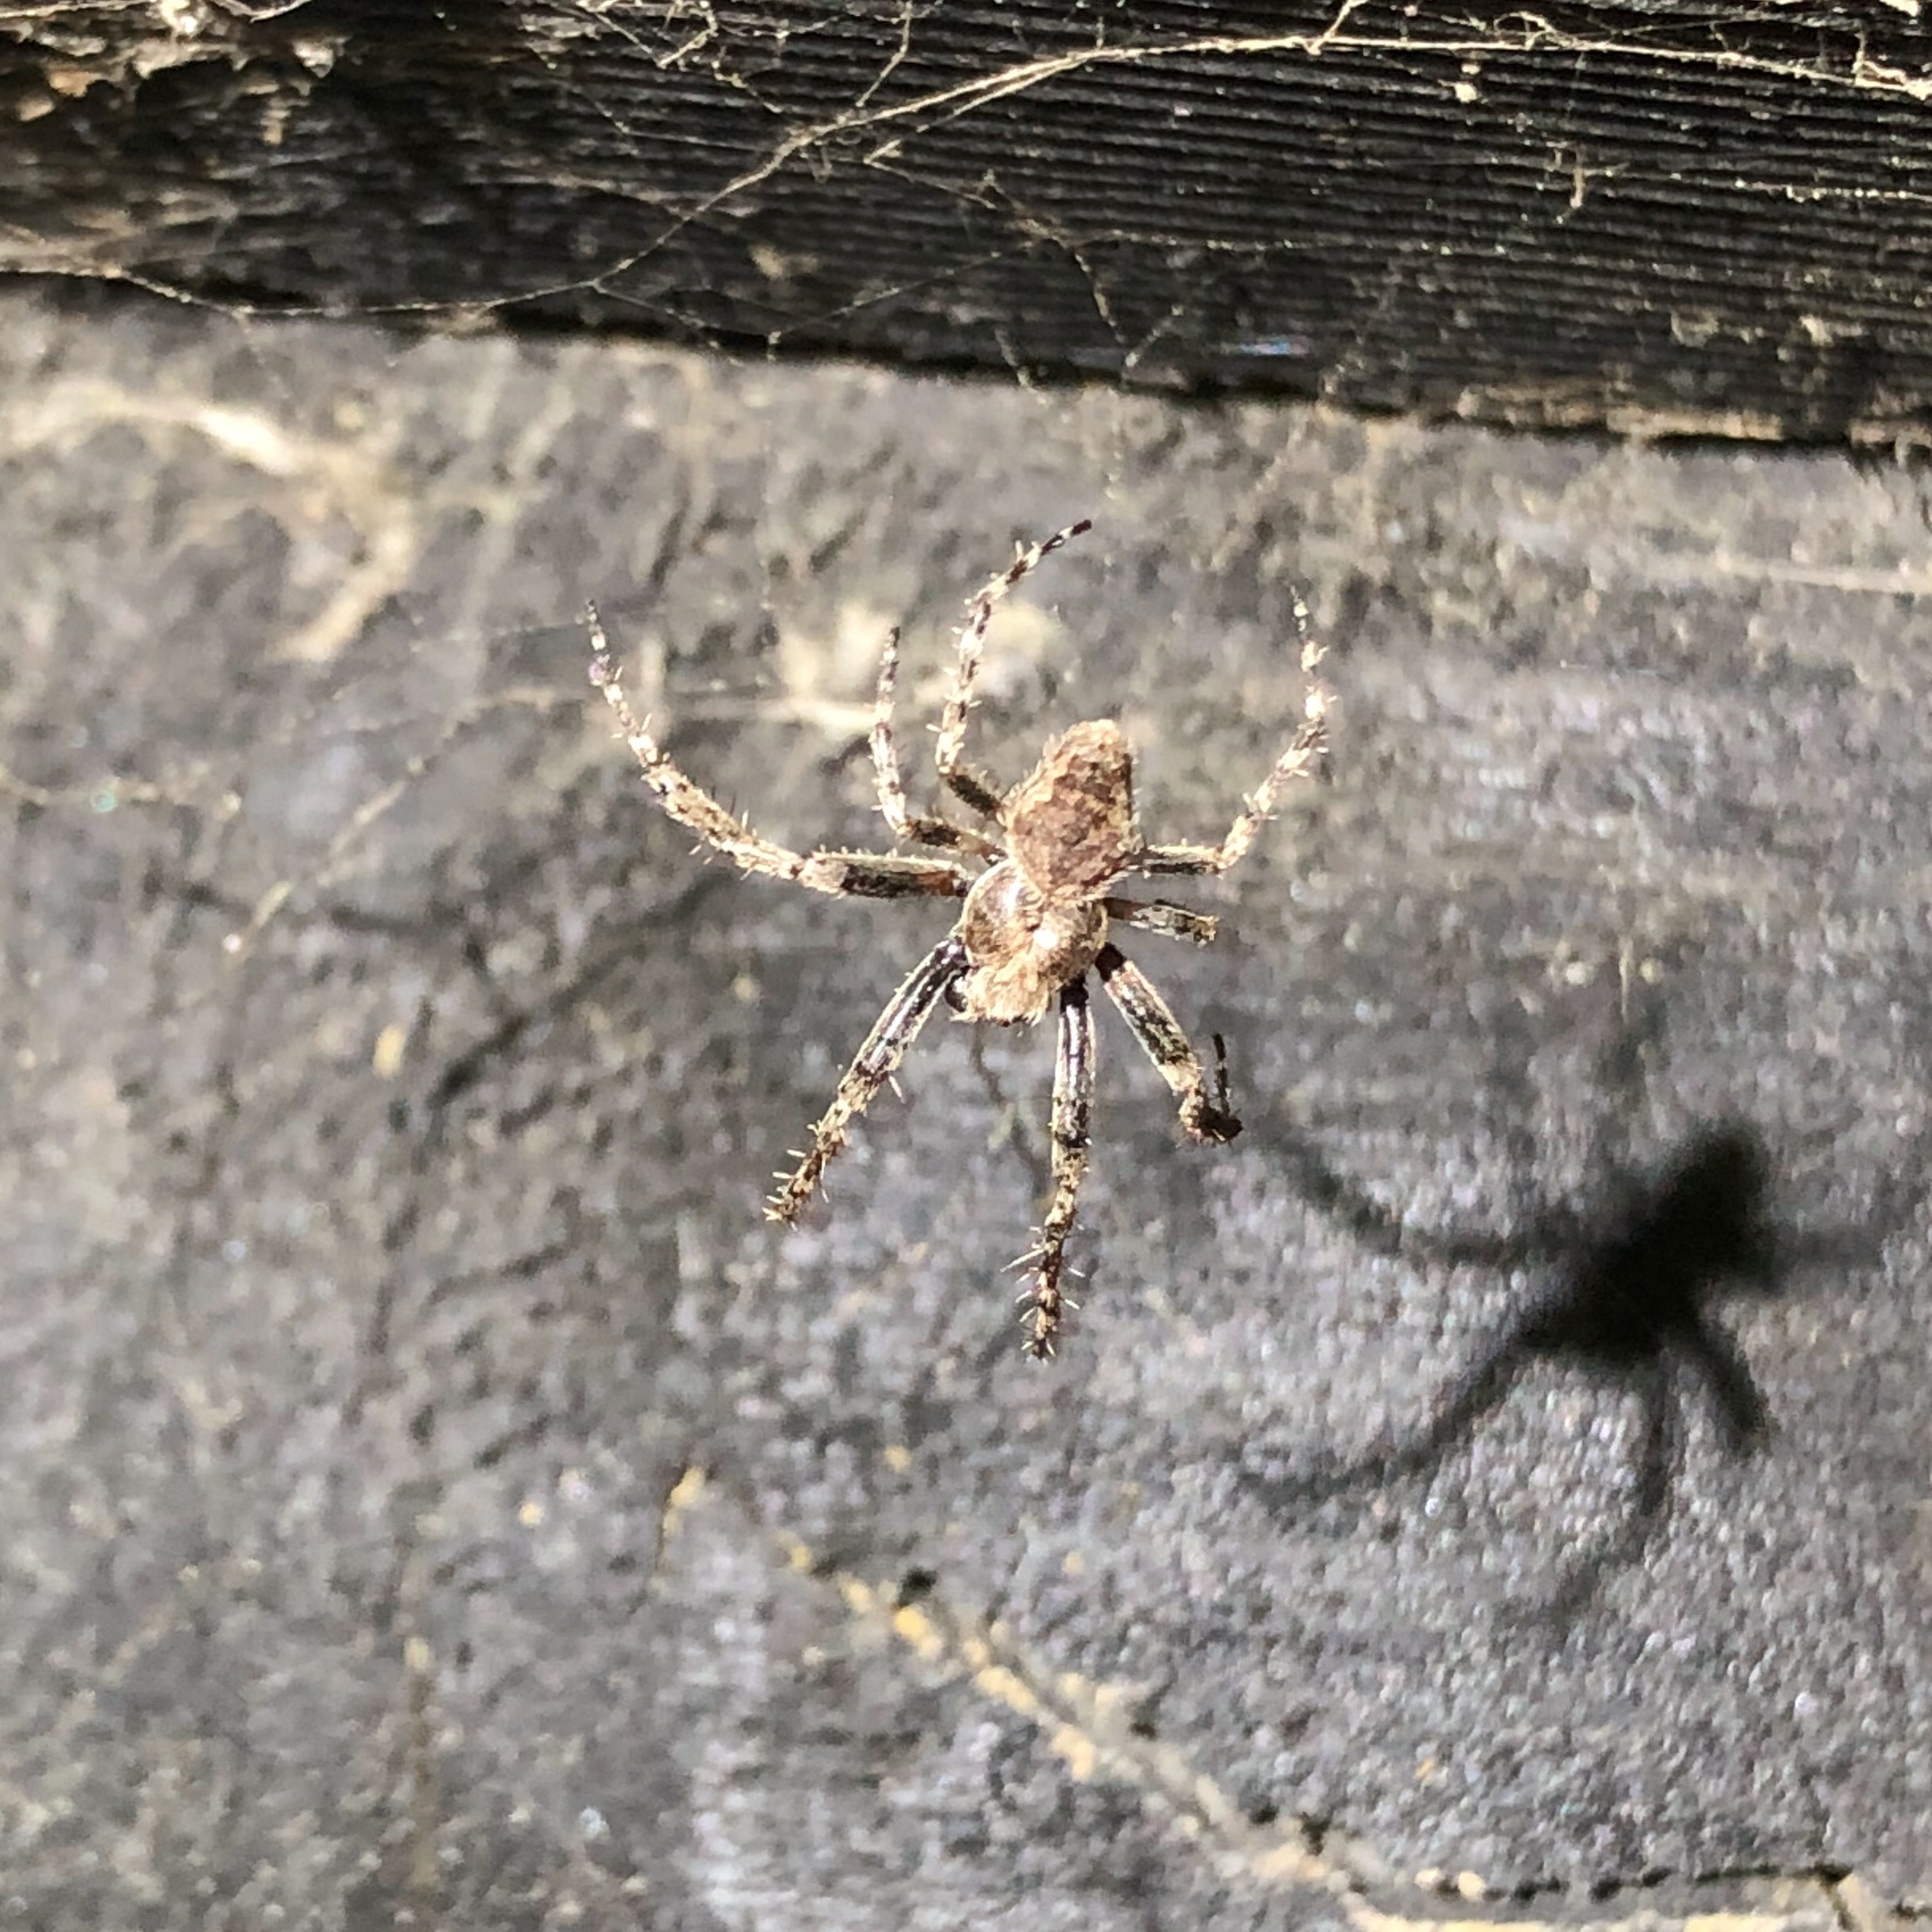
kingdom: Animalia
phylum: Arthropoda
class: Arachnida
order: Araneae
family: Araneidae
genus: Eriophora
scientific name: Eriophora pustulosa
